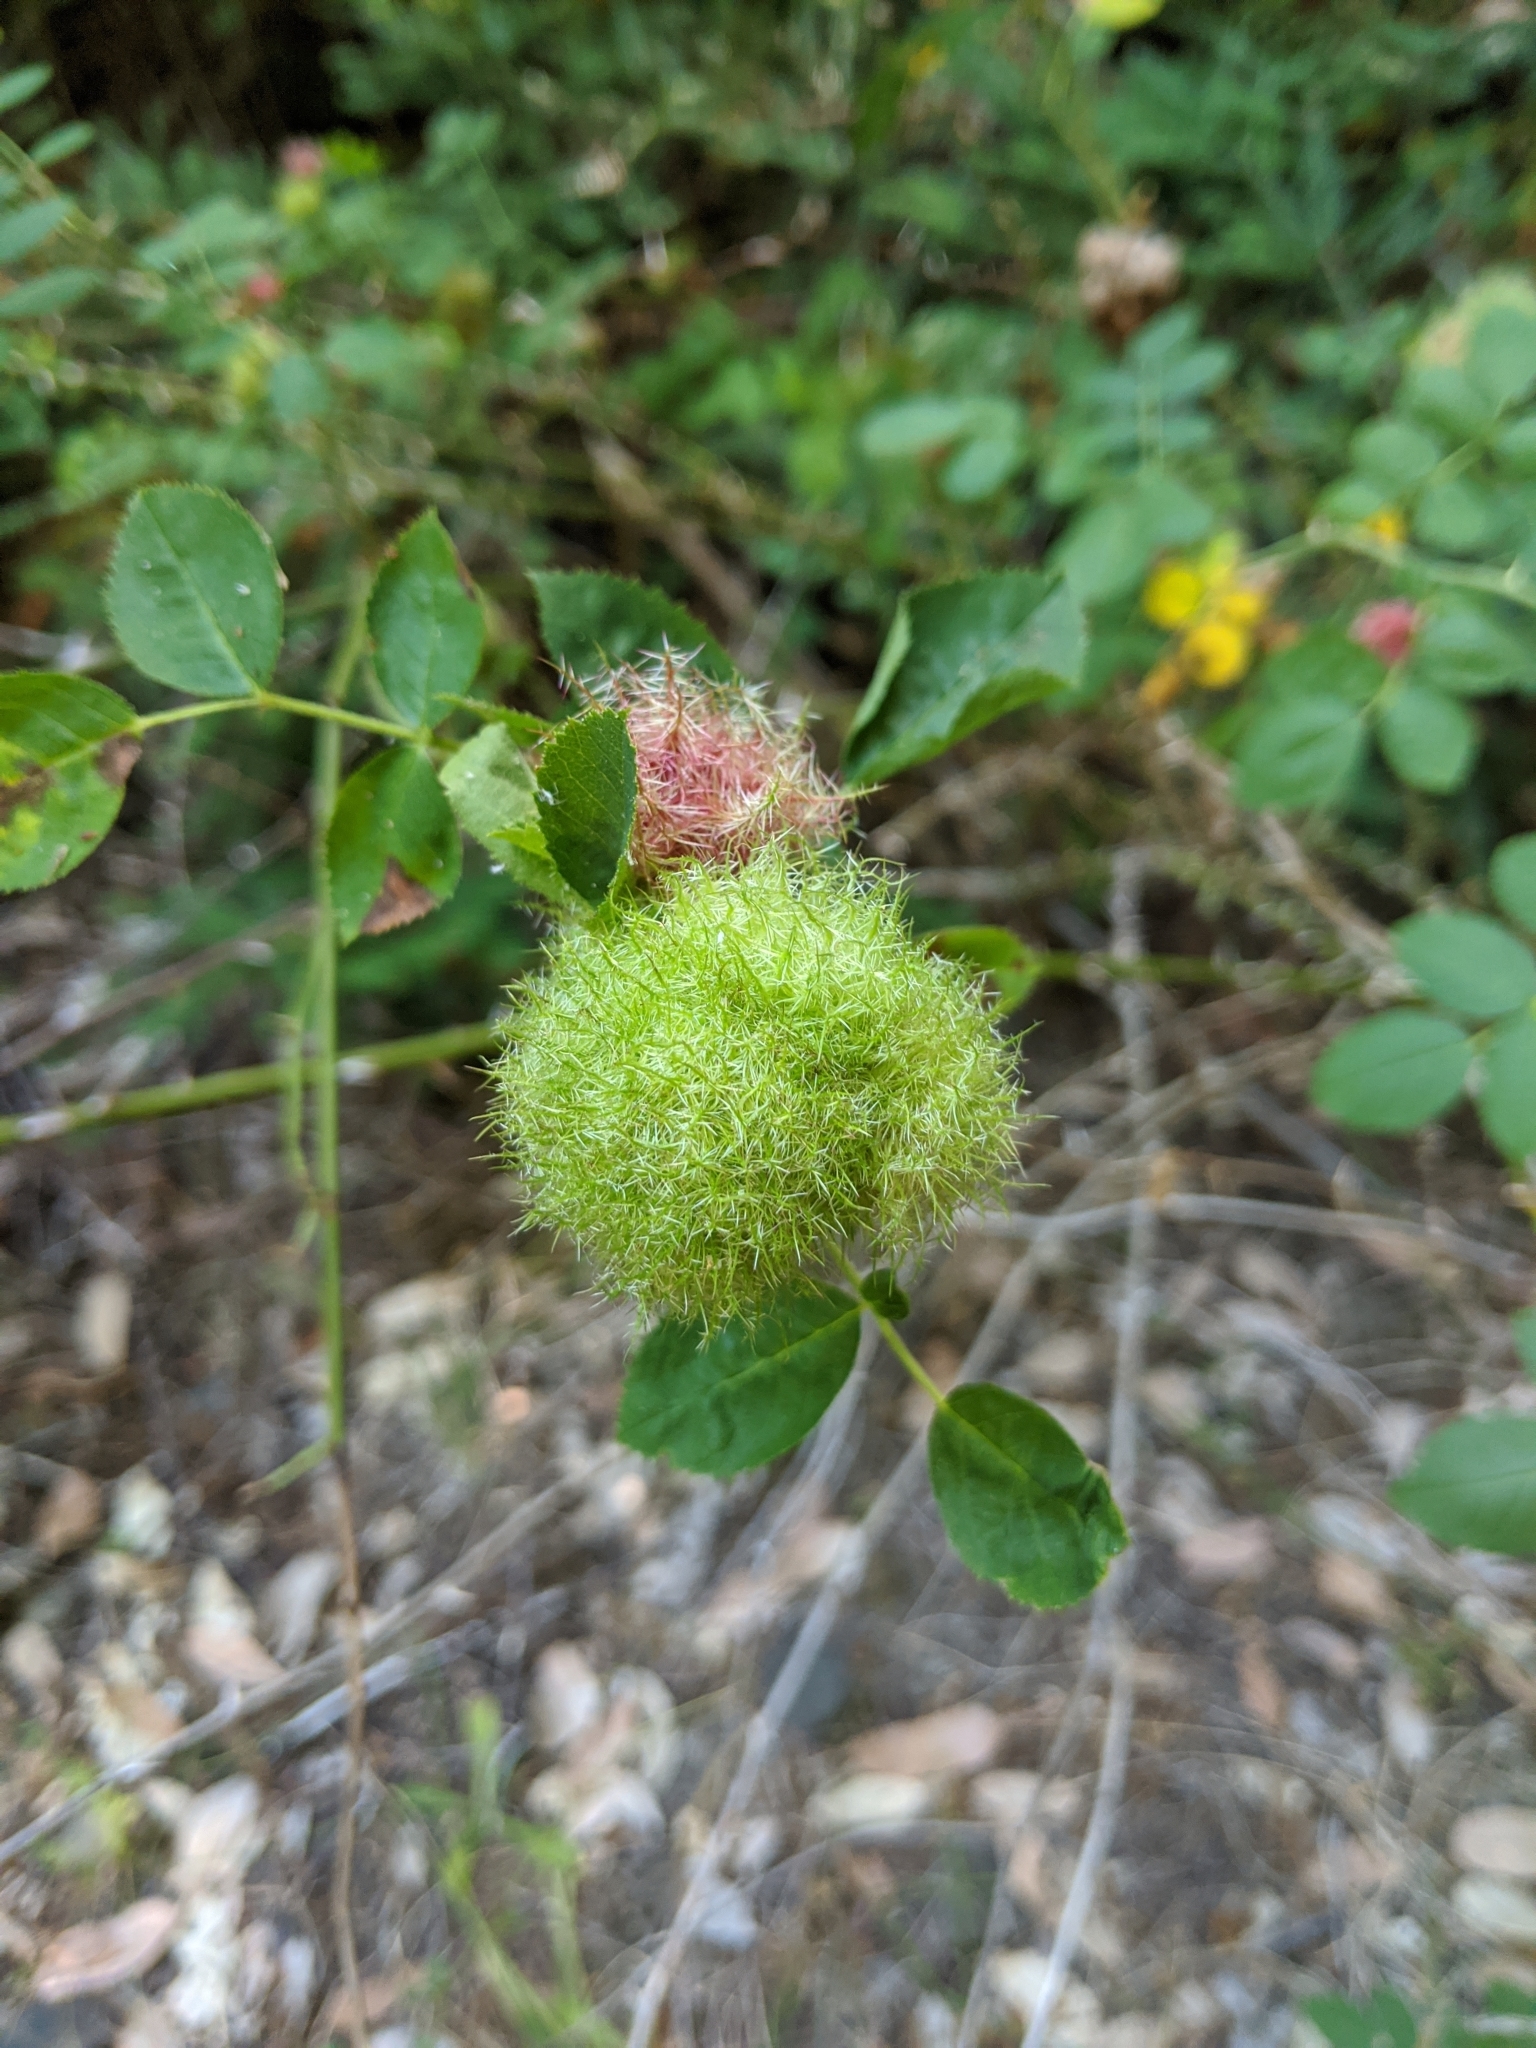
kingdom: Animalia
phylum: Arthropoda
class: Insecta
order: Hymenoptera
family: Cynipidae
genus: Diplolepis
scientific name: Diplolepis rosae
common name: Bedeguar gall
